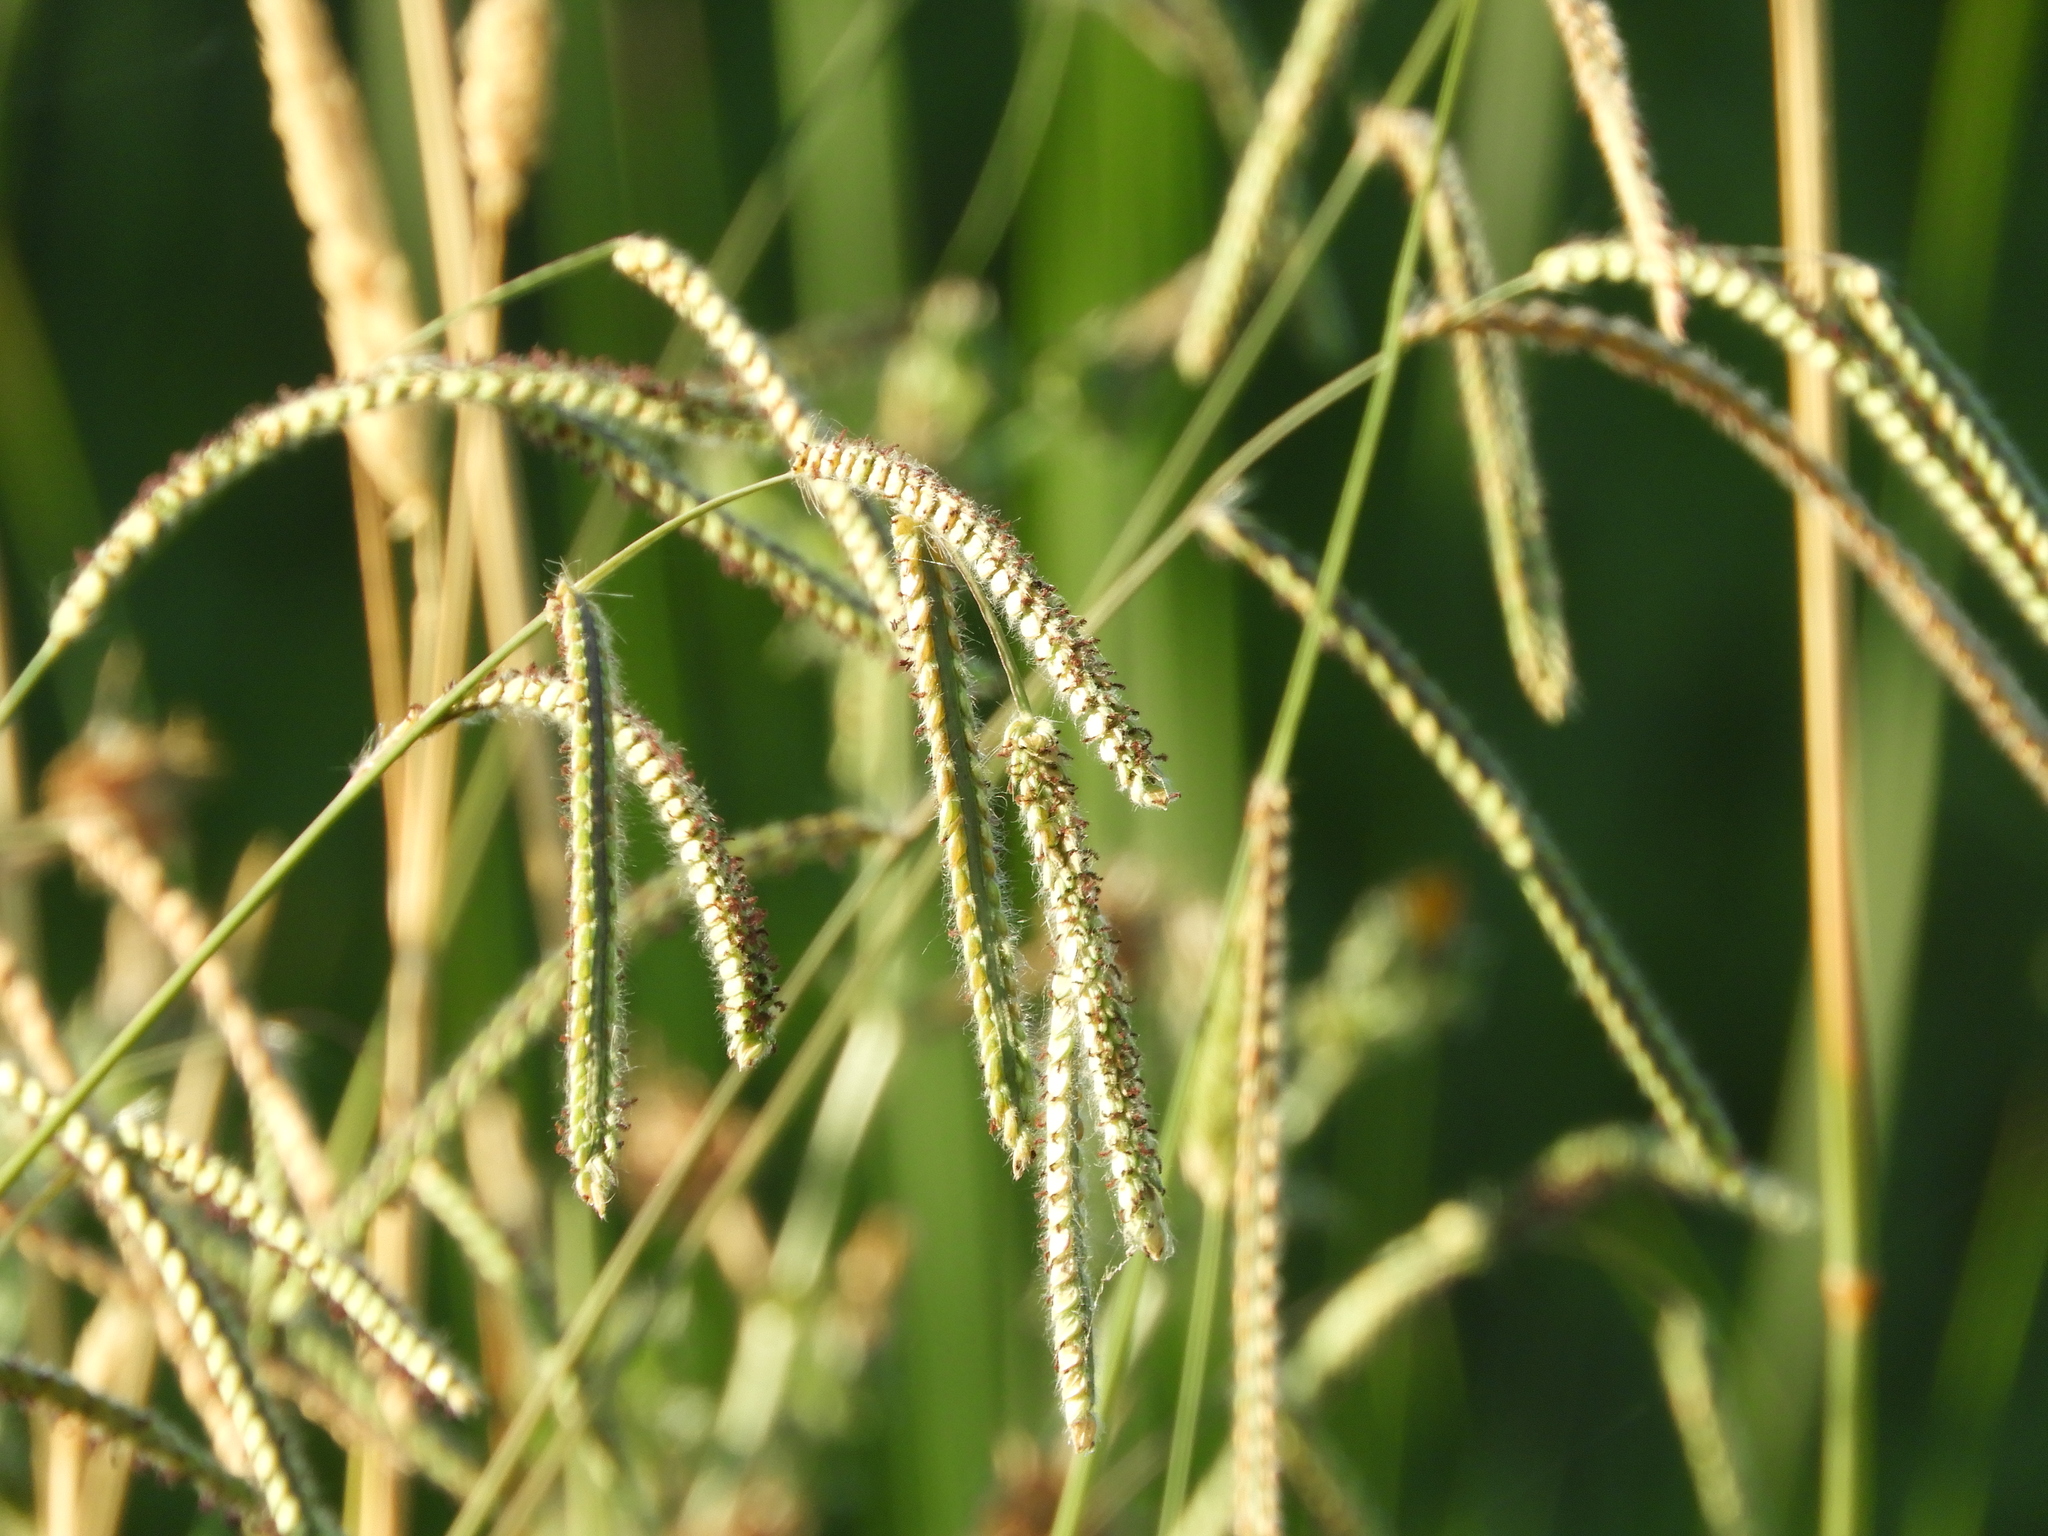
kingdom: Plantae
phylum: Tracheophyta
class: Liliopsida
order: Poales
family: Poaceae
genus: Paspalum
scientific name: Paspalum dilatatum
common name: Dallisgrass
